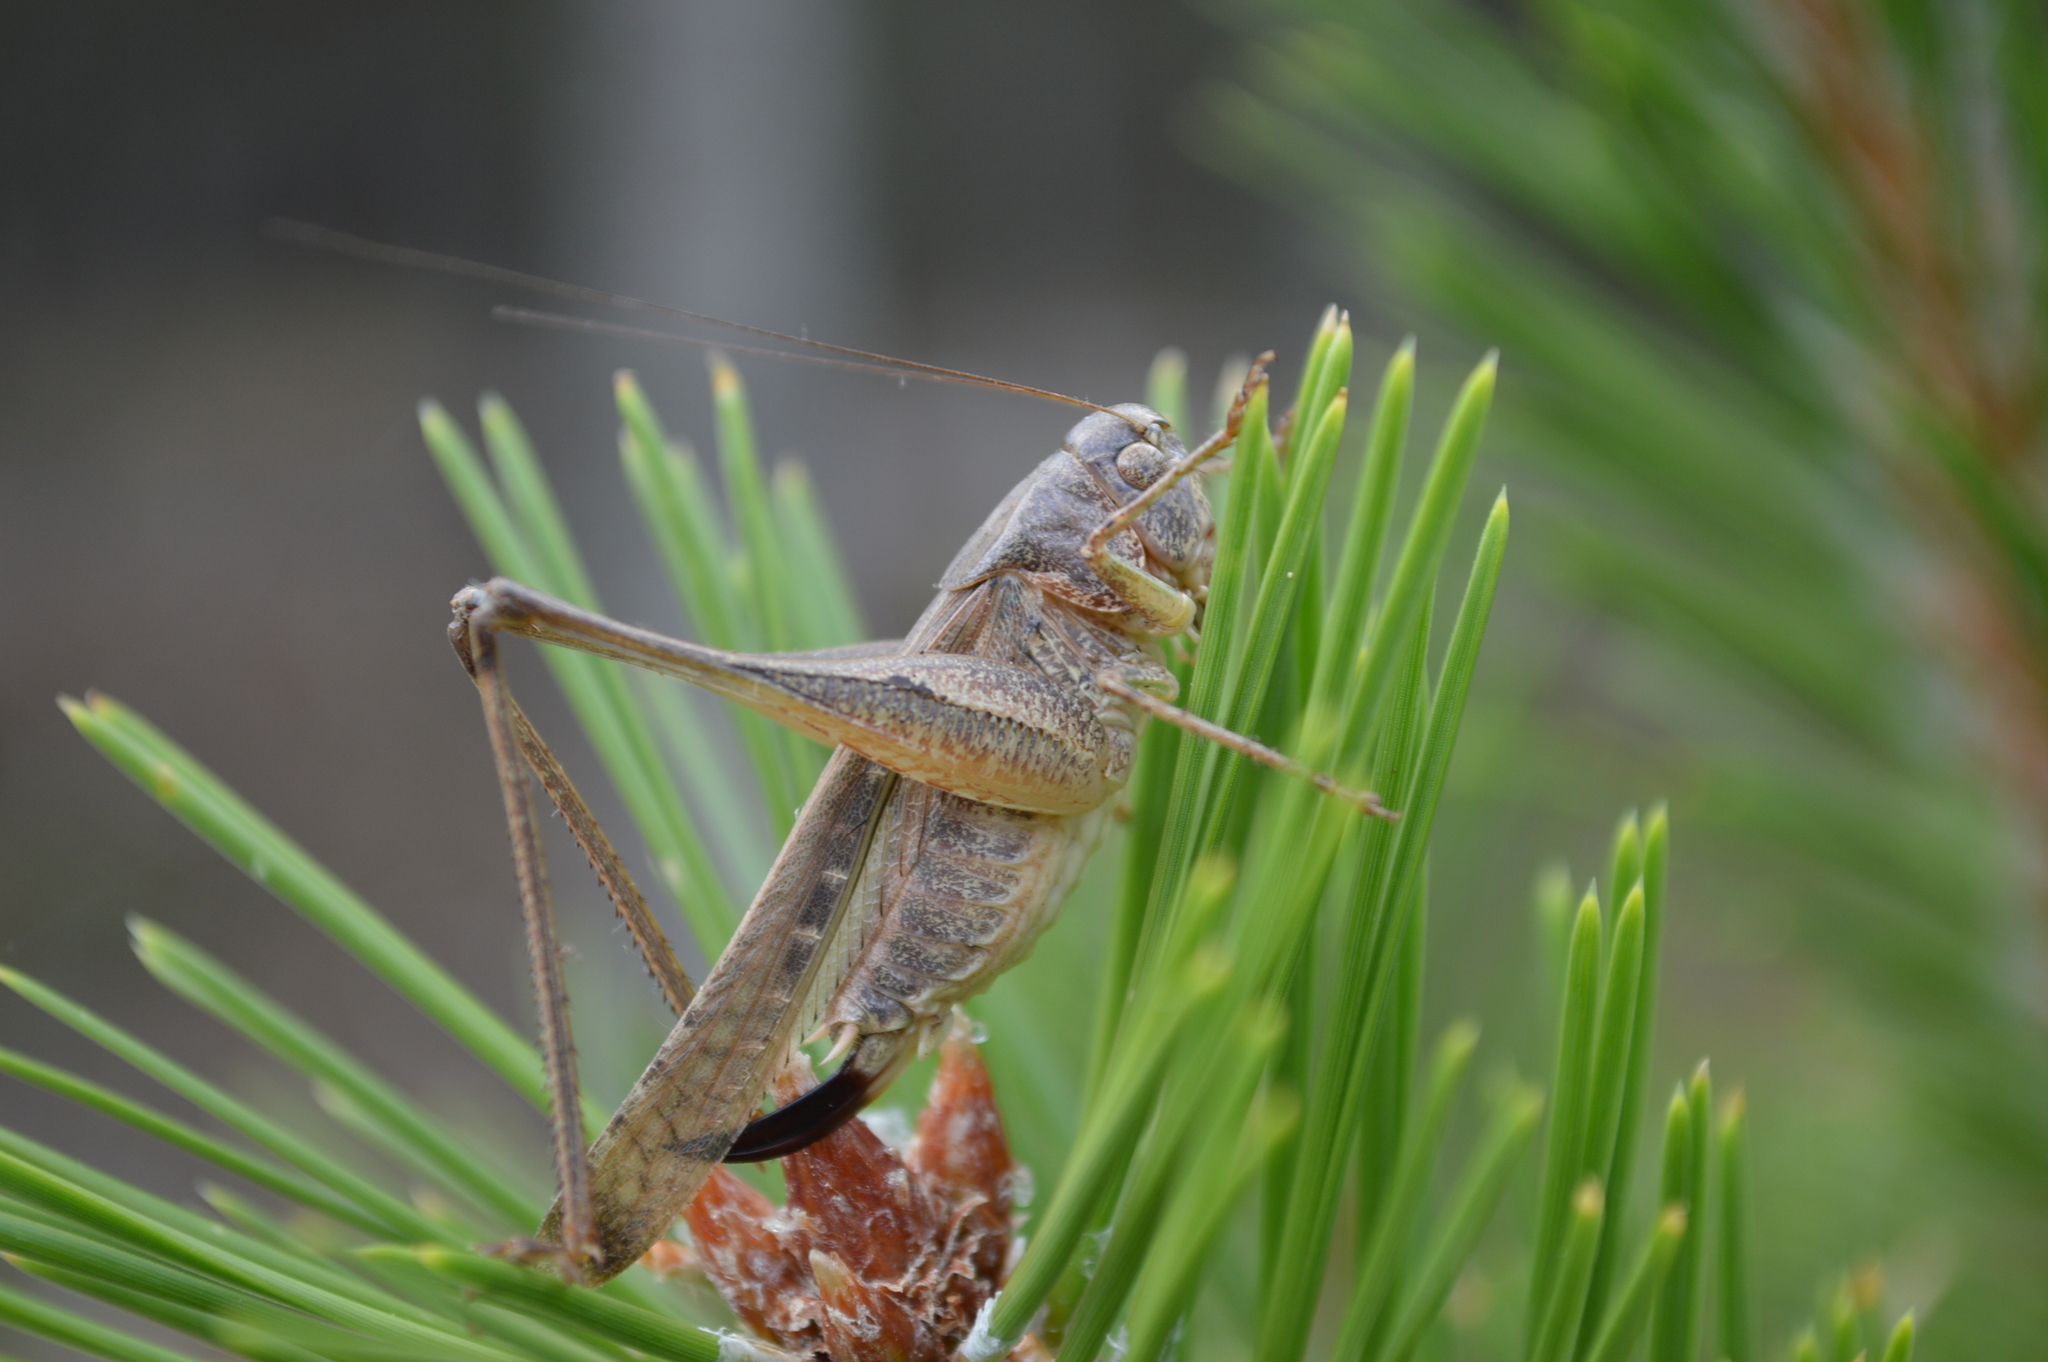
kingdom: Animalia
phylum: Arthropoda
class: Insecta
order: Orthoptera
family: Tettigoniidae
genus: Platycleis
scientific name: Platycleis intermedia
